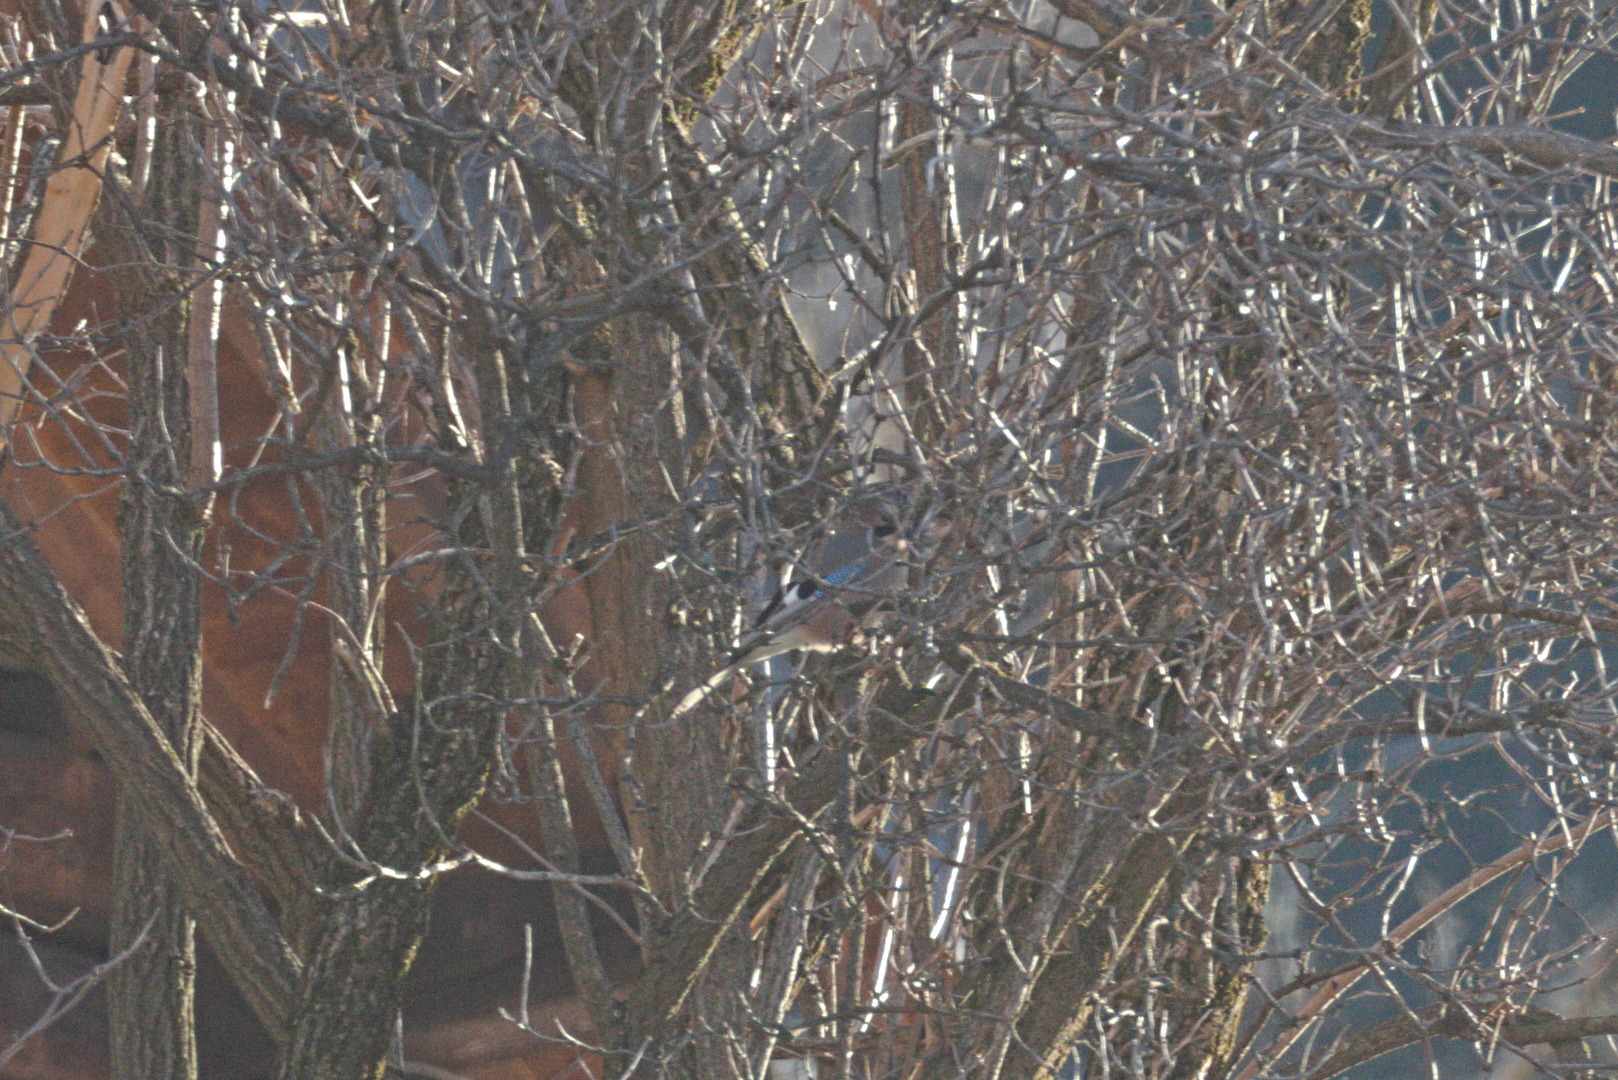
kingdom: Animalia
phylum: Chordata
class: Aves
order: Passeriformes
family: Corvidae
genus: Garrulus
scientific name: Garrulus glandarius
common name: Eurasian jay
